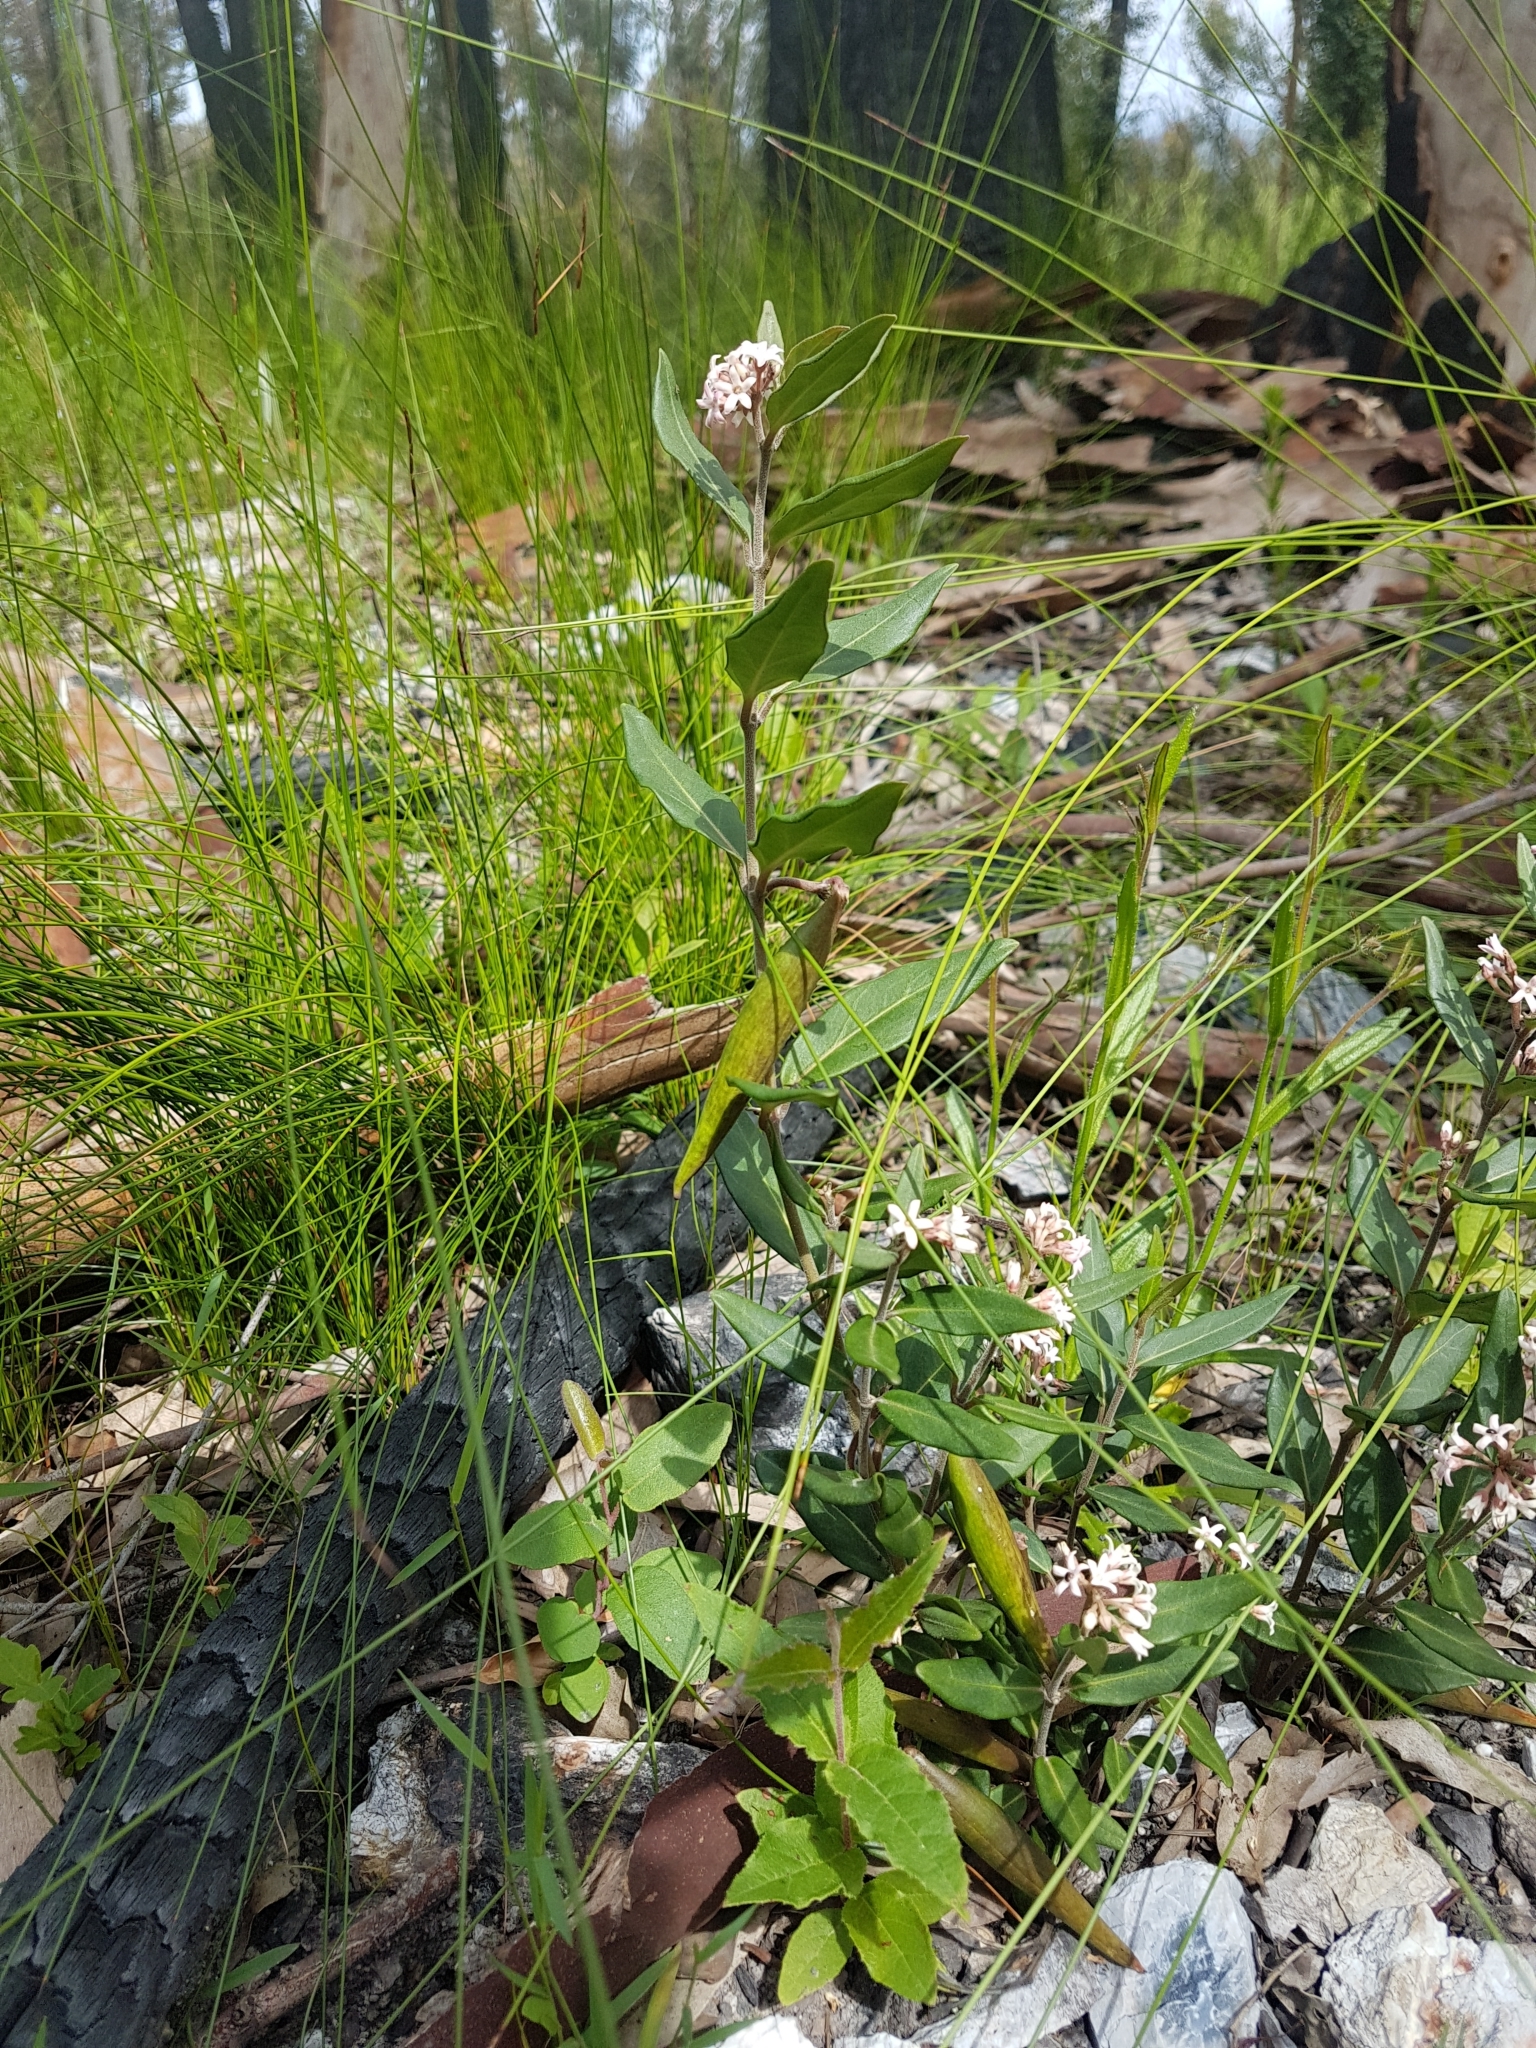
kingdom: Plantae
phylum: Tracheophyta
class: Magnoliopsida
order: Gentianales
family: Apocynaceae
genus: Leichhardtia
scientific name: Leichhardtia suaveolens
